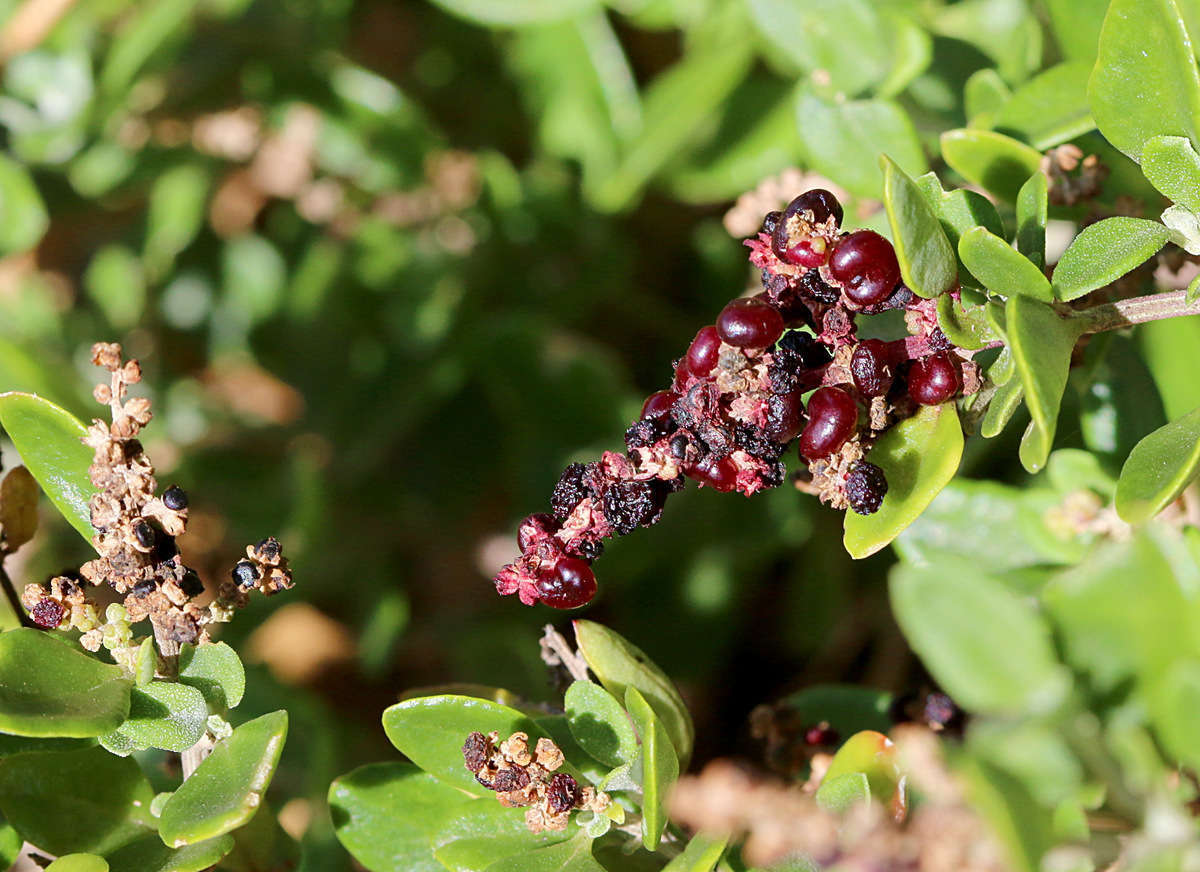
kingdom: Plantae
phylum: Tracheophyta
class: Magnoliopsida
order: Caryophyllales
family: Amaranthaceae
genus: Chenopodium
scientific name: Chenopodium candolleanum
